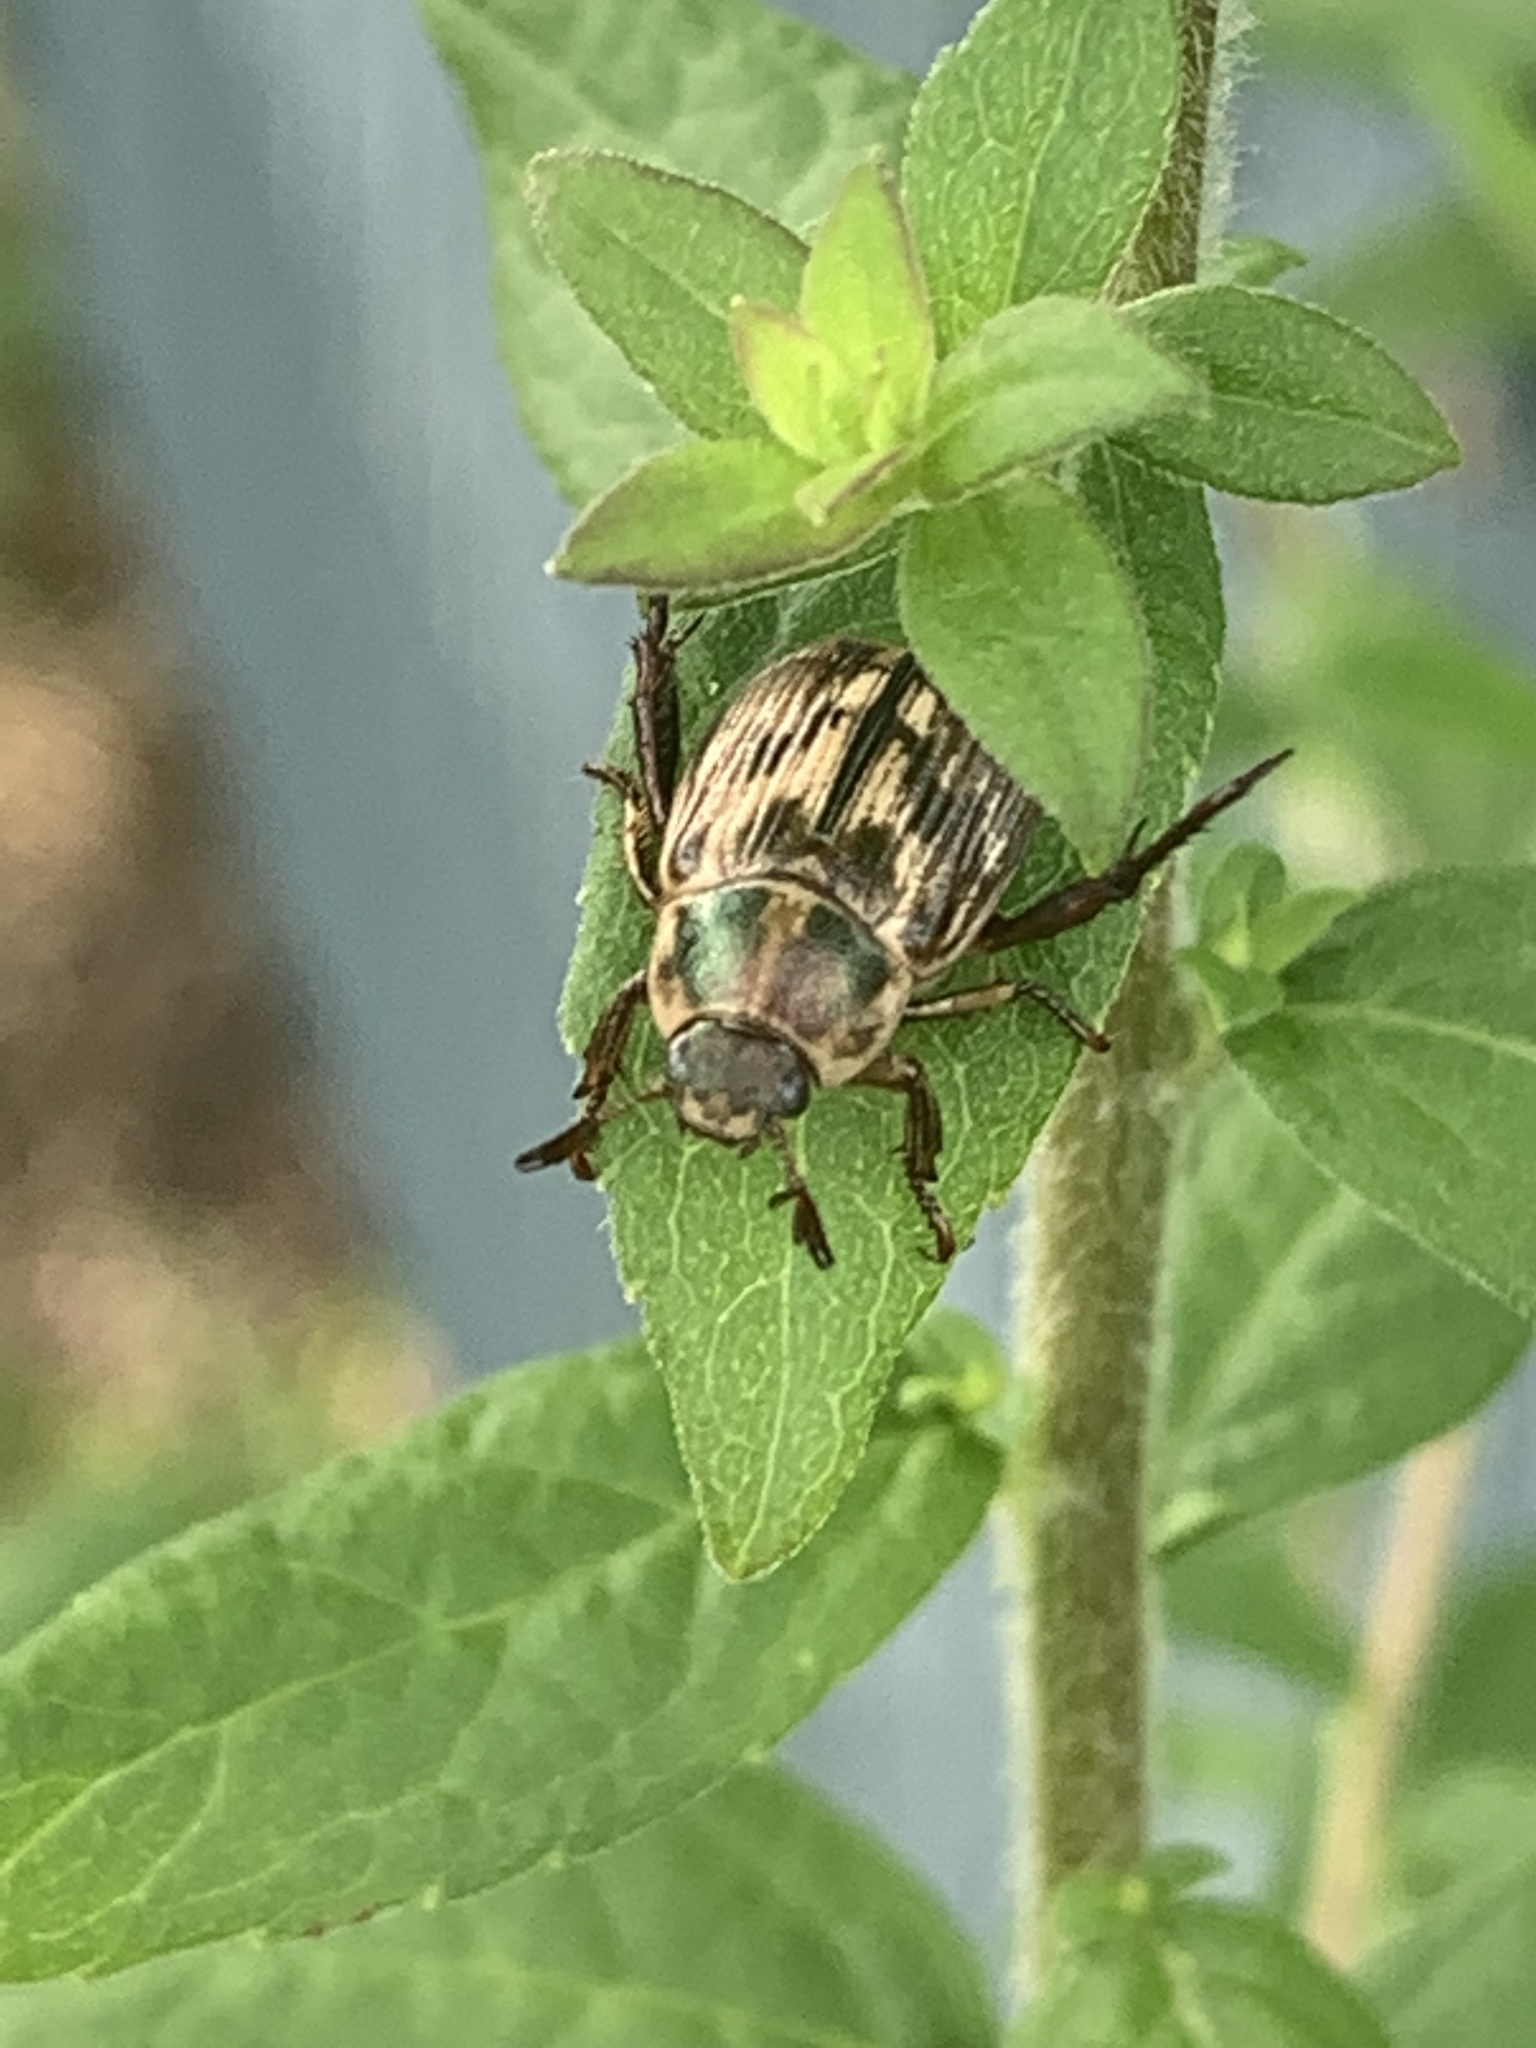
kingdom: Animalia
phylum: Arthropoda
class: Insecta
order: Coleoptera
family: Scarabaeidae
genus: Exomala
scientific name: Exomala orientalis
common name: Oriental beetle
